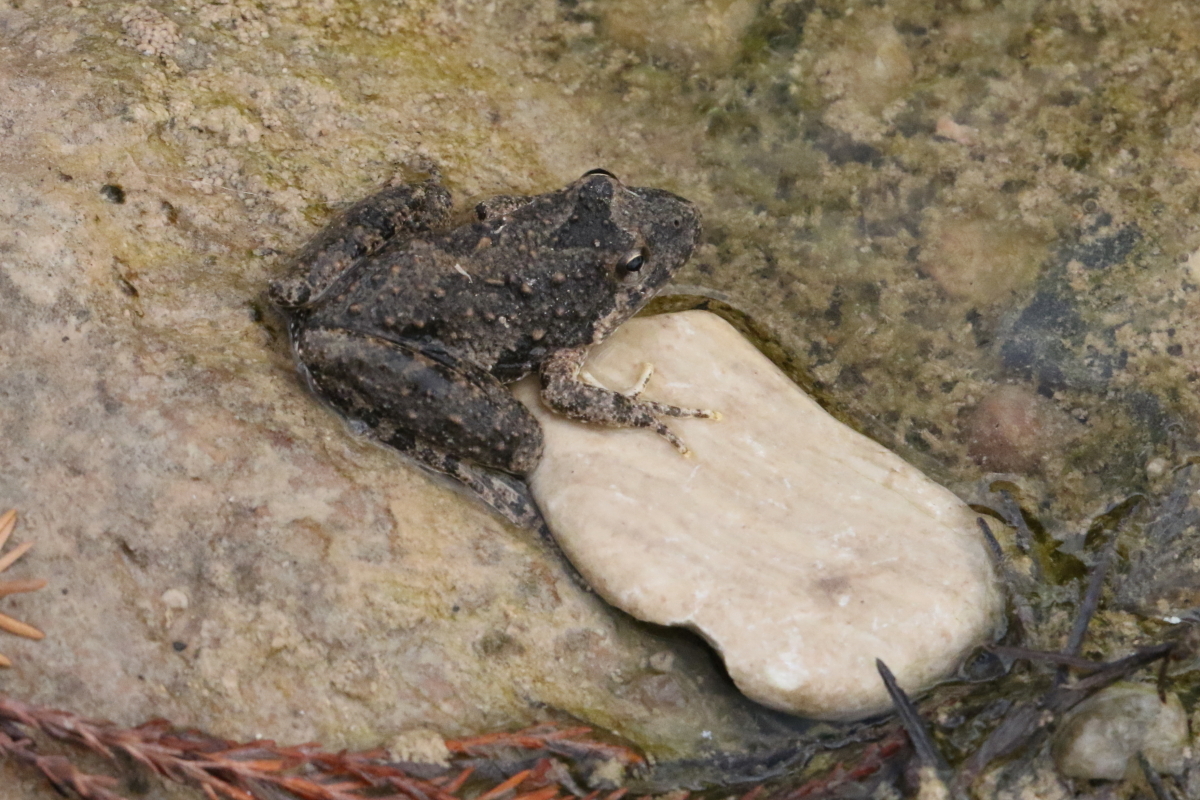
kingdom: Animalia
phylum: Chordata
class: Amphibia
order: Anura
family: Hylidae
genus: Acris
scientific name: Acris blanchardi
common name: Blanchard's cricket frog
